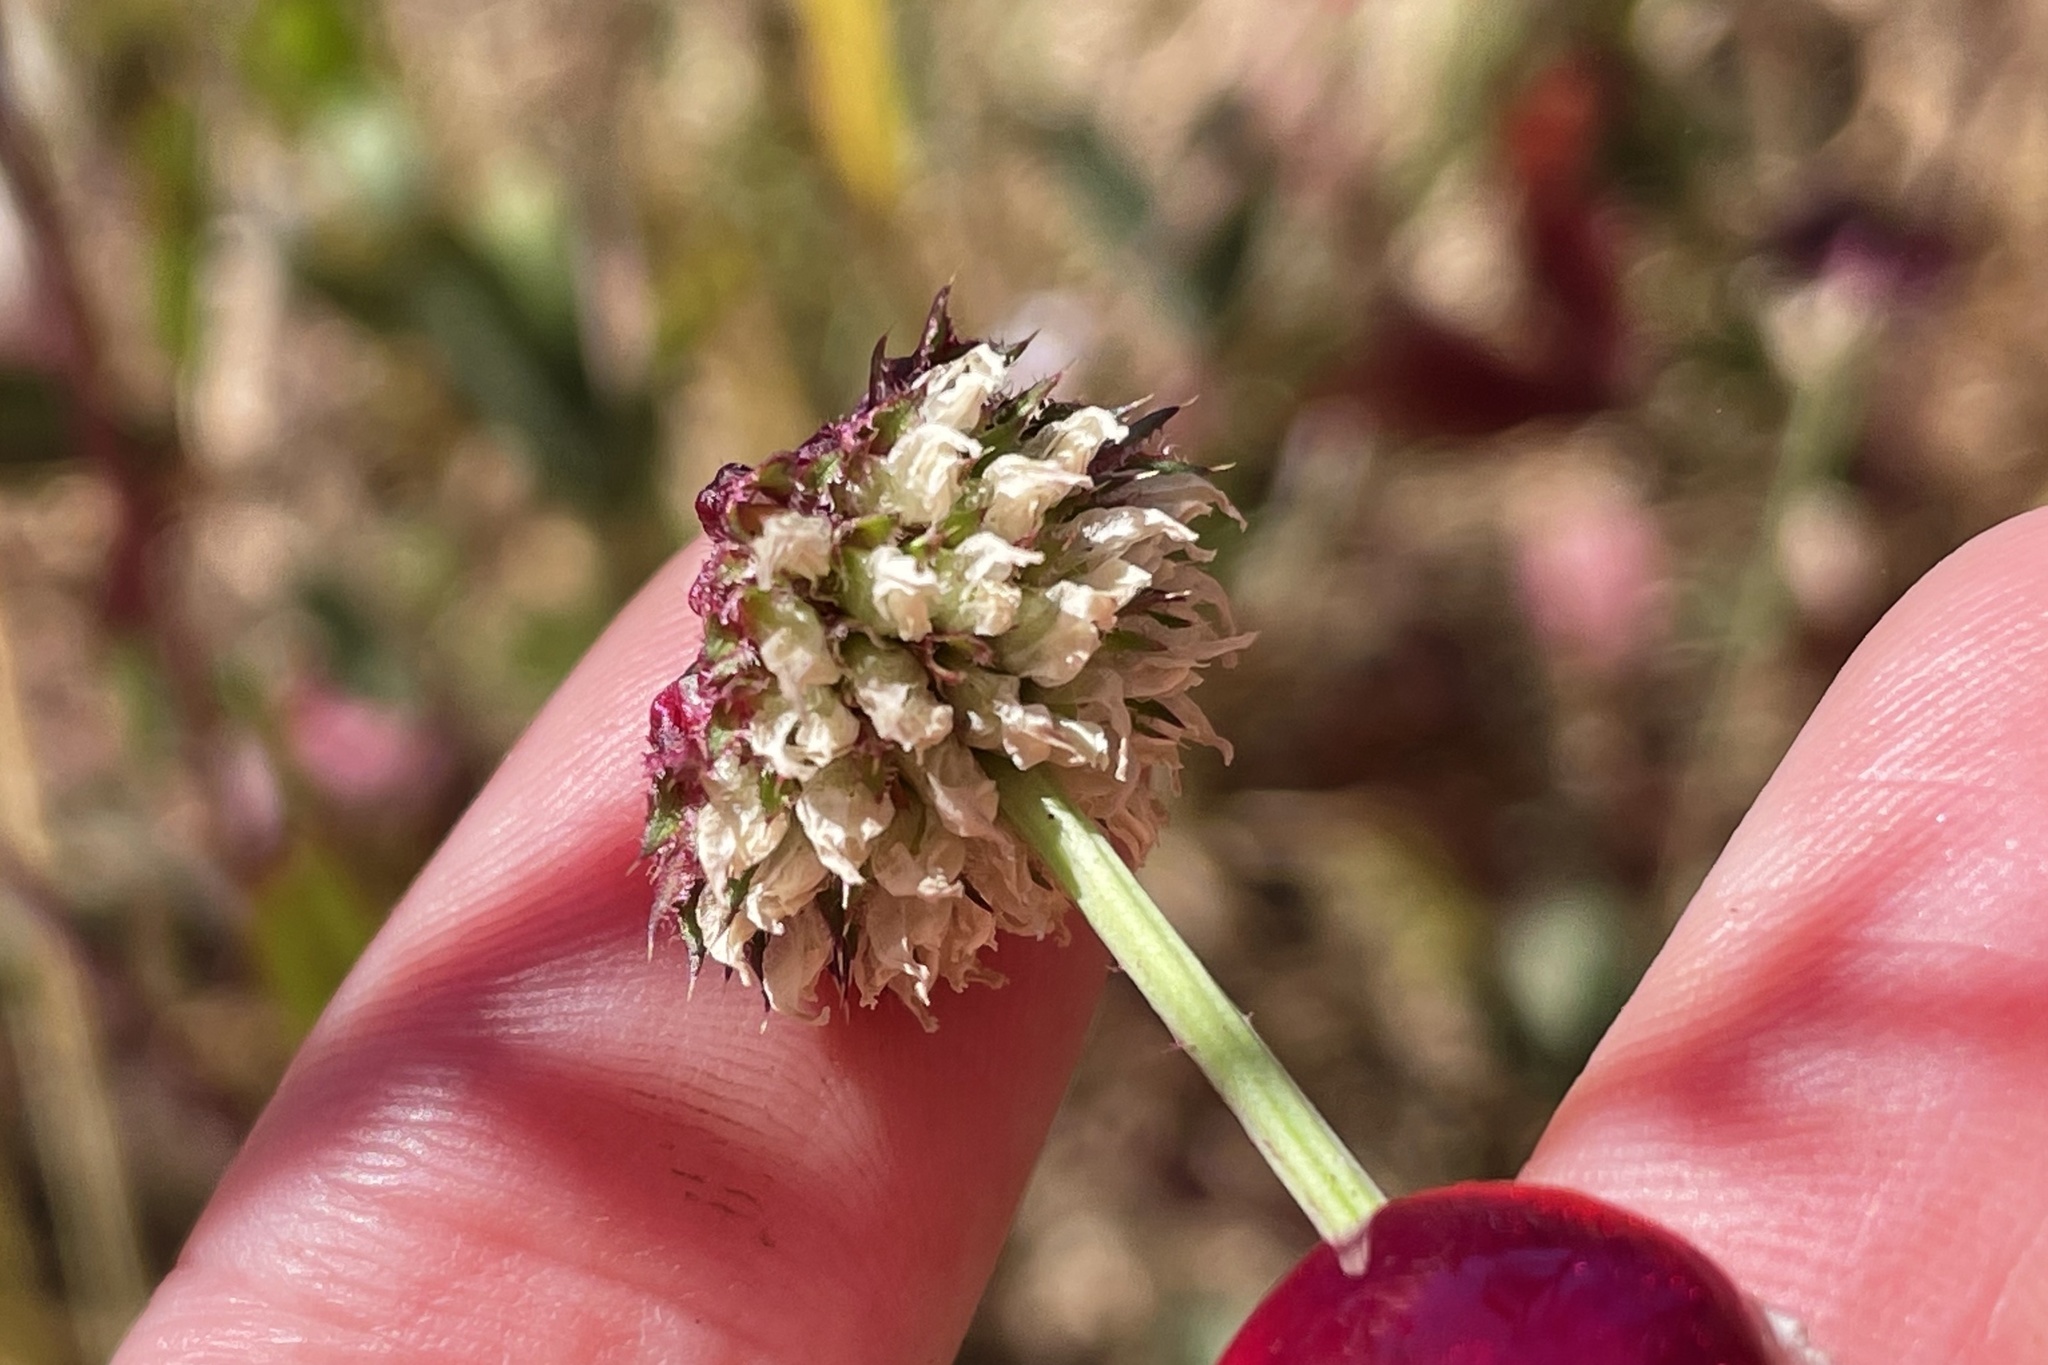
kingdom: Plantae
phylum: Tracheophyta
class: Magnoliopsida
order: Fabales
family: Fabaceae
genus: Trifolium
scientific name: Trifolium ciliolatum
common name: Foothill clover
